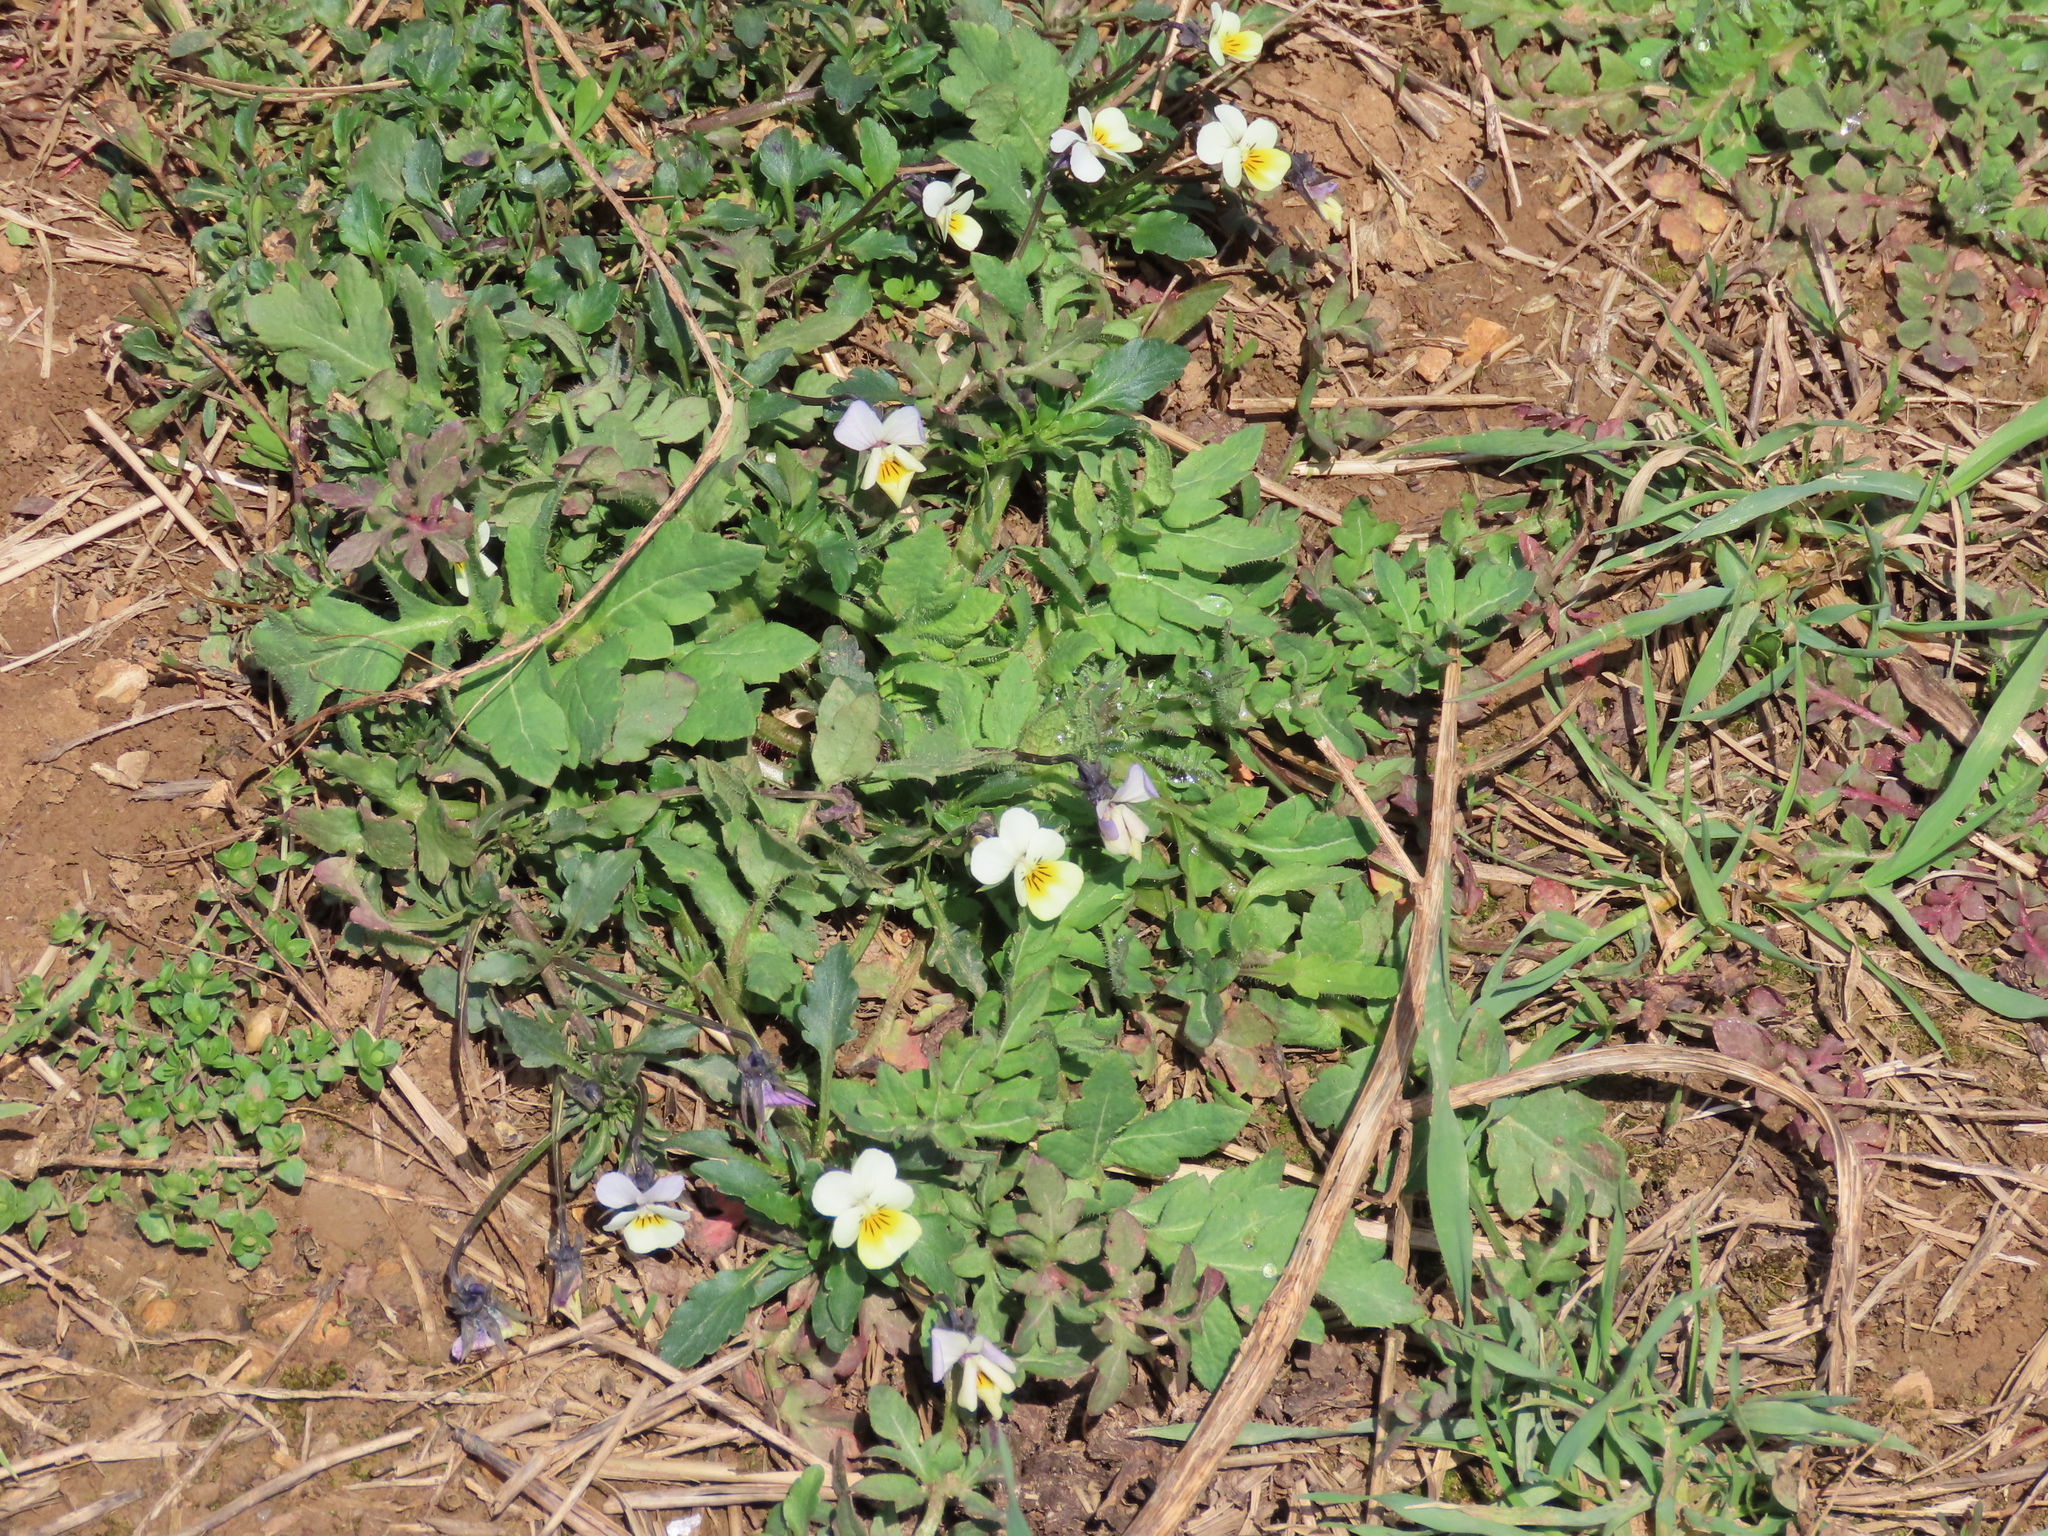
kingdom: Plantae
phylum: Tracheophyta
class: Magnoliopsida
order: Malpighiales
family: Violaceae
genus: Viola
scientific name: Viola arvensis
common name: Field pansy
